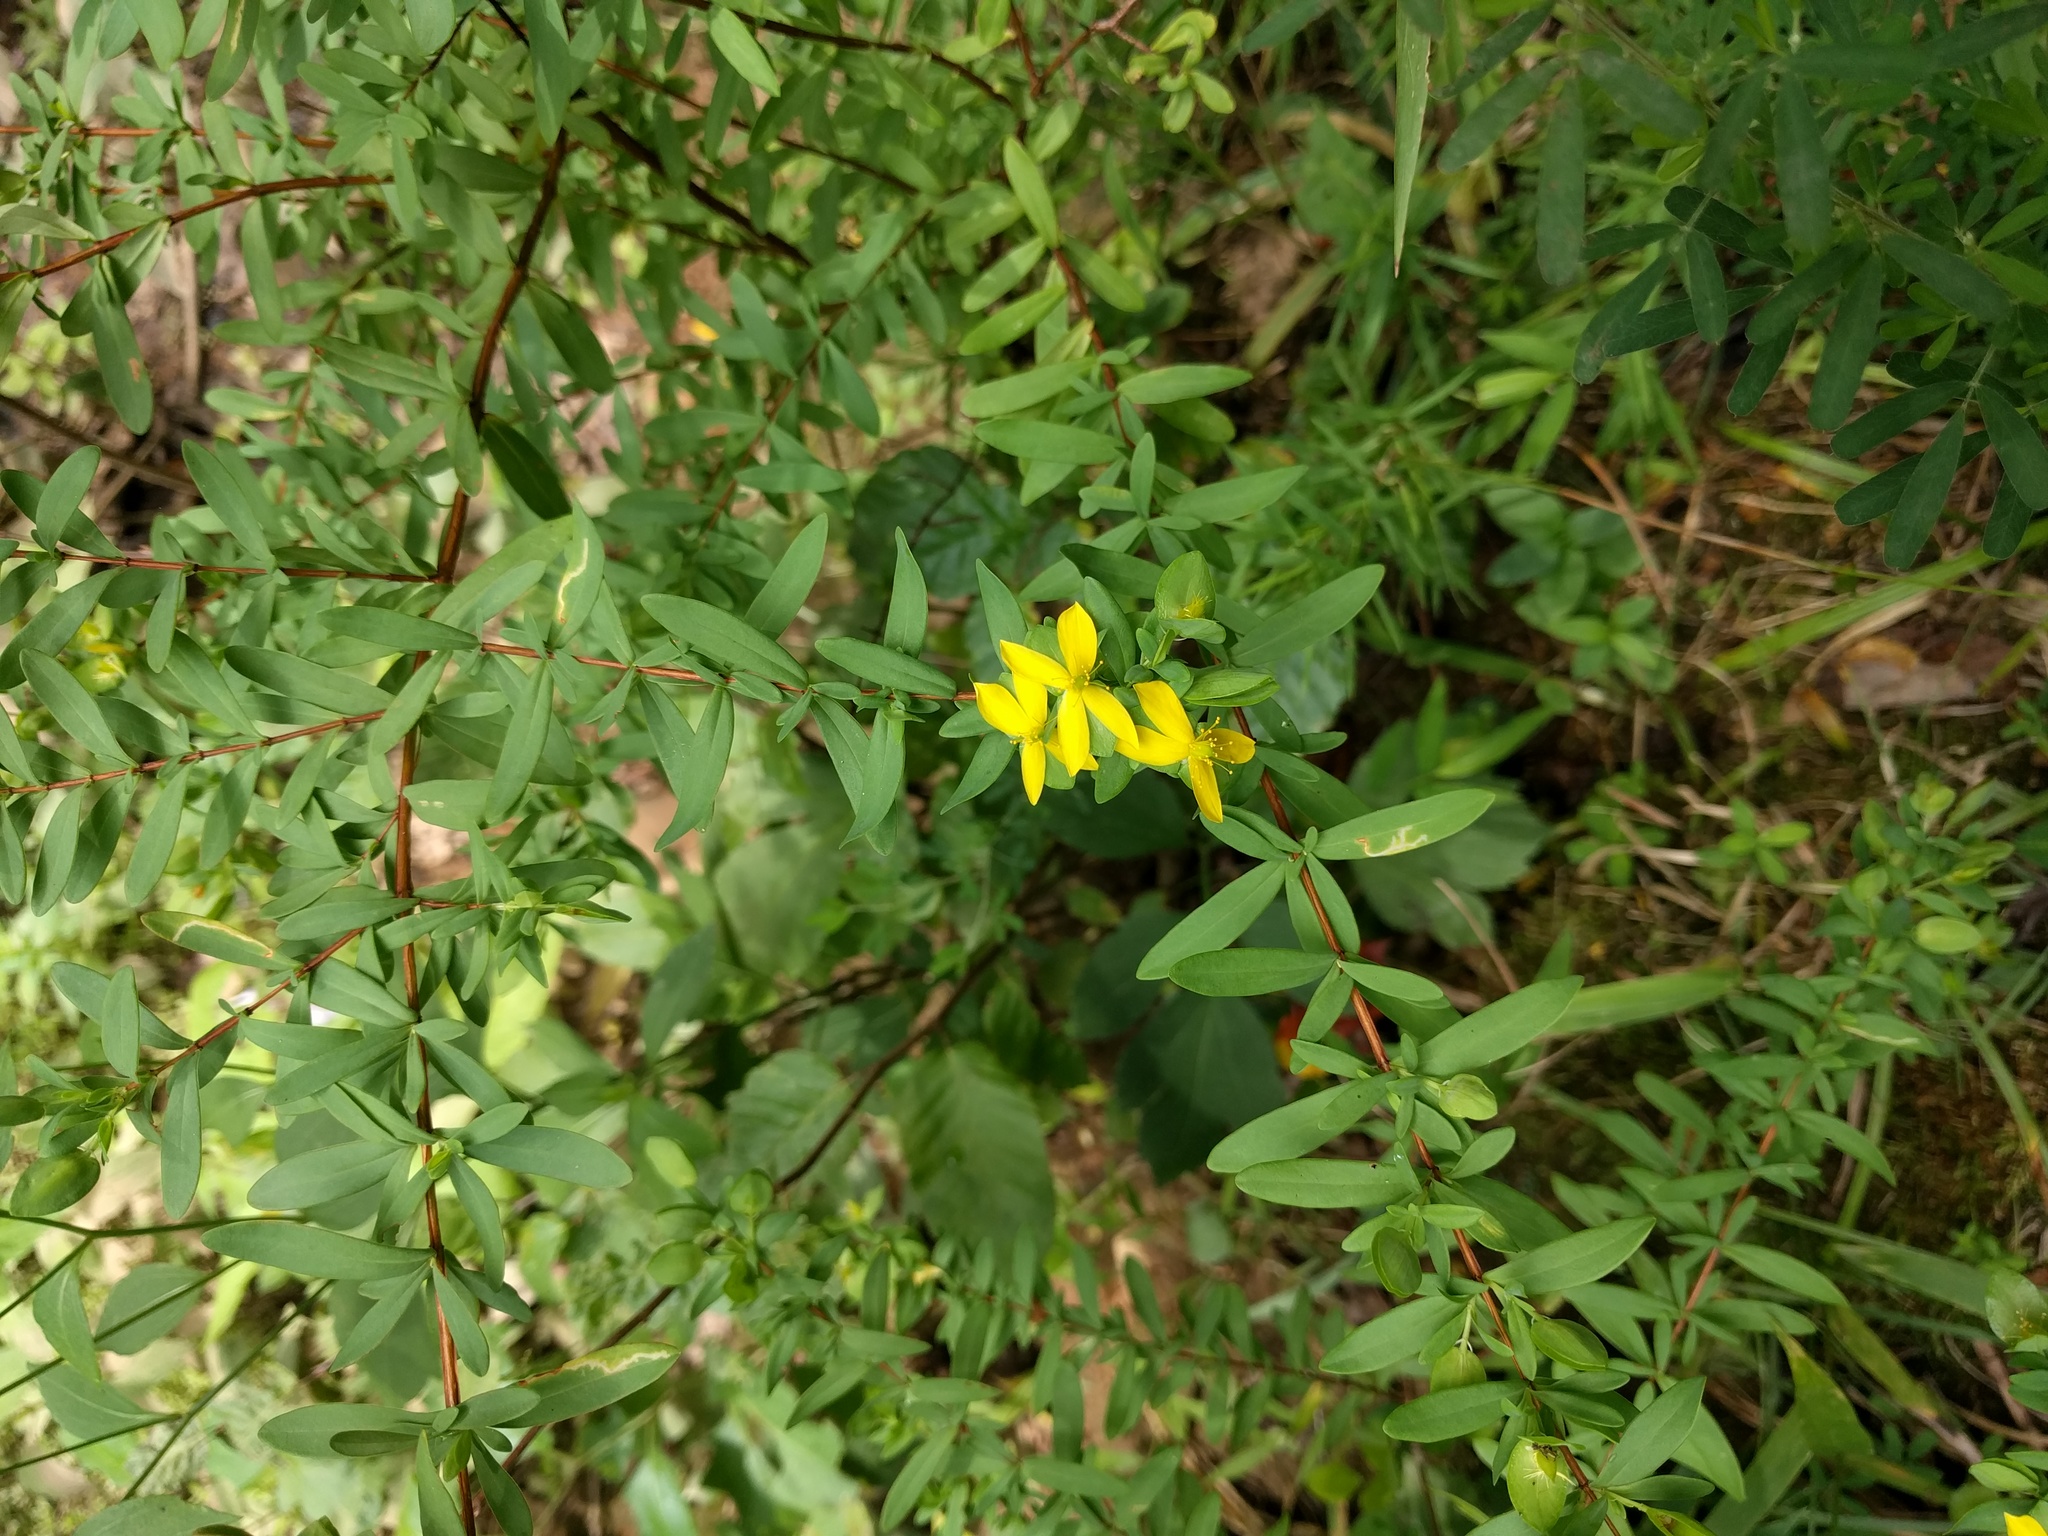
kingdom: Plantae
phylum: Tracheophyta
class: Magnoliopsida
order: Malpighiales
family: Hypericaceae
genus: Hypericum
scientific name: Hypericum hypericoides
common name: St. andrew's cross
